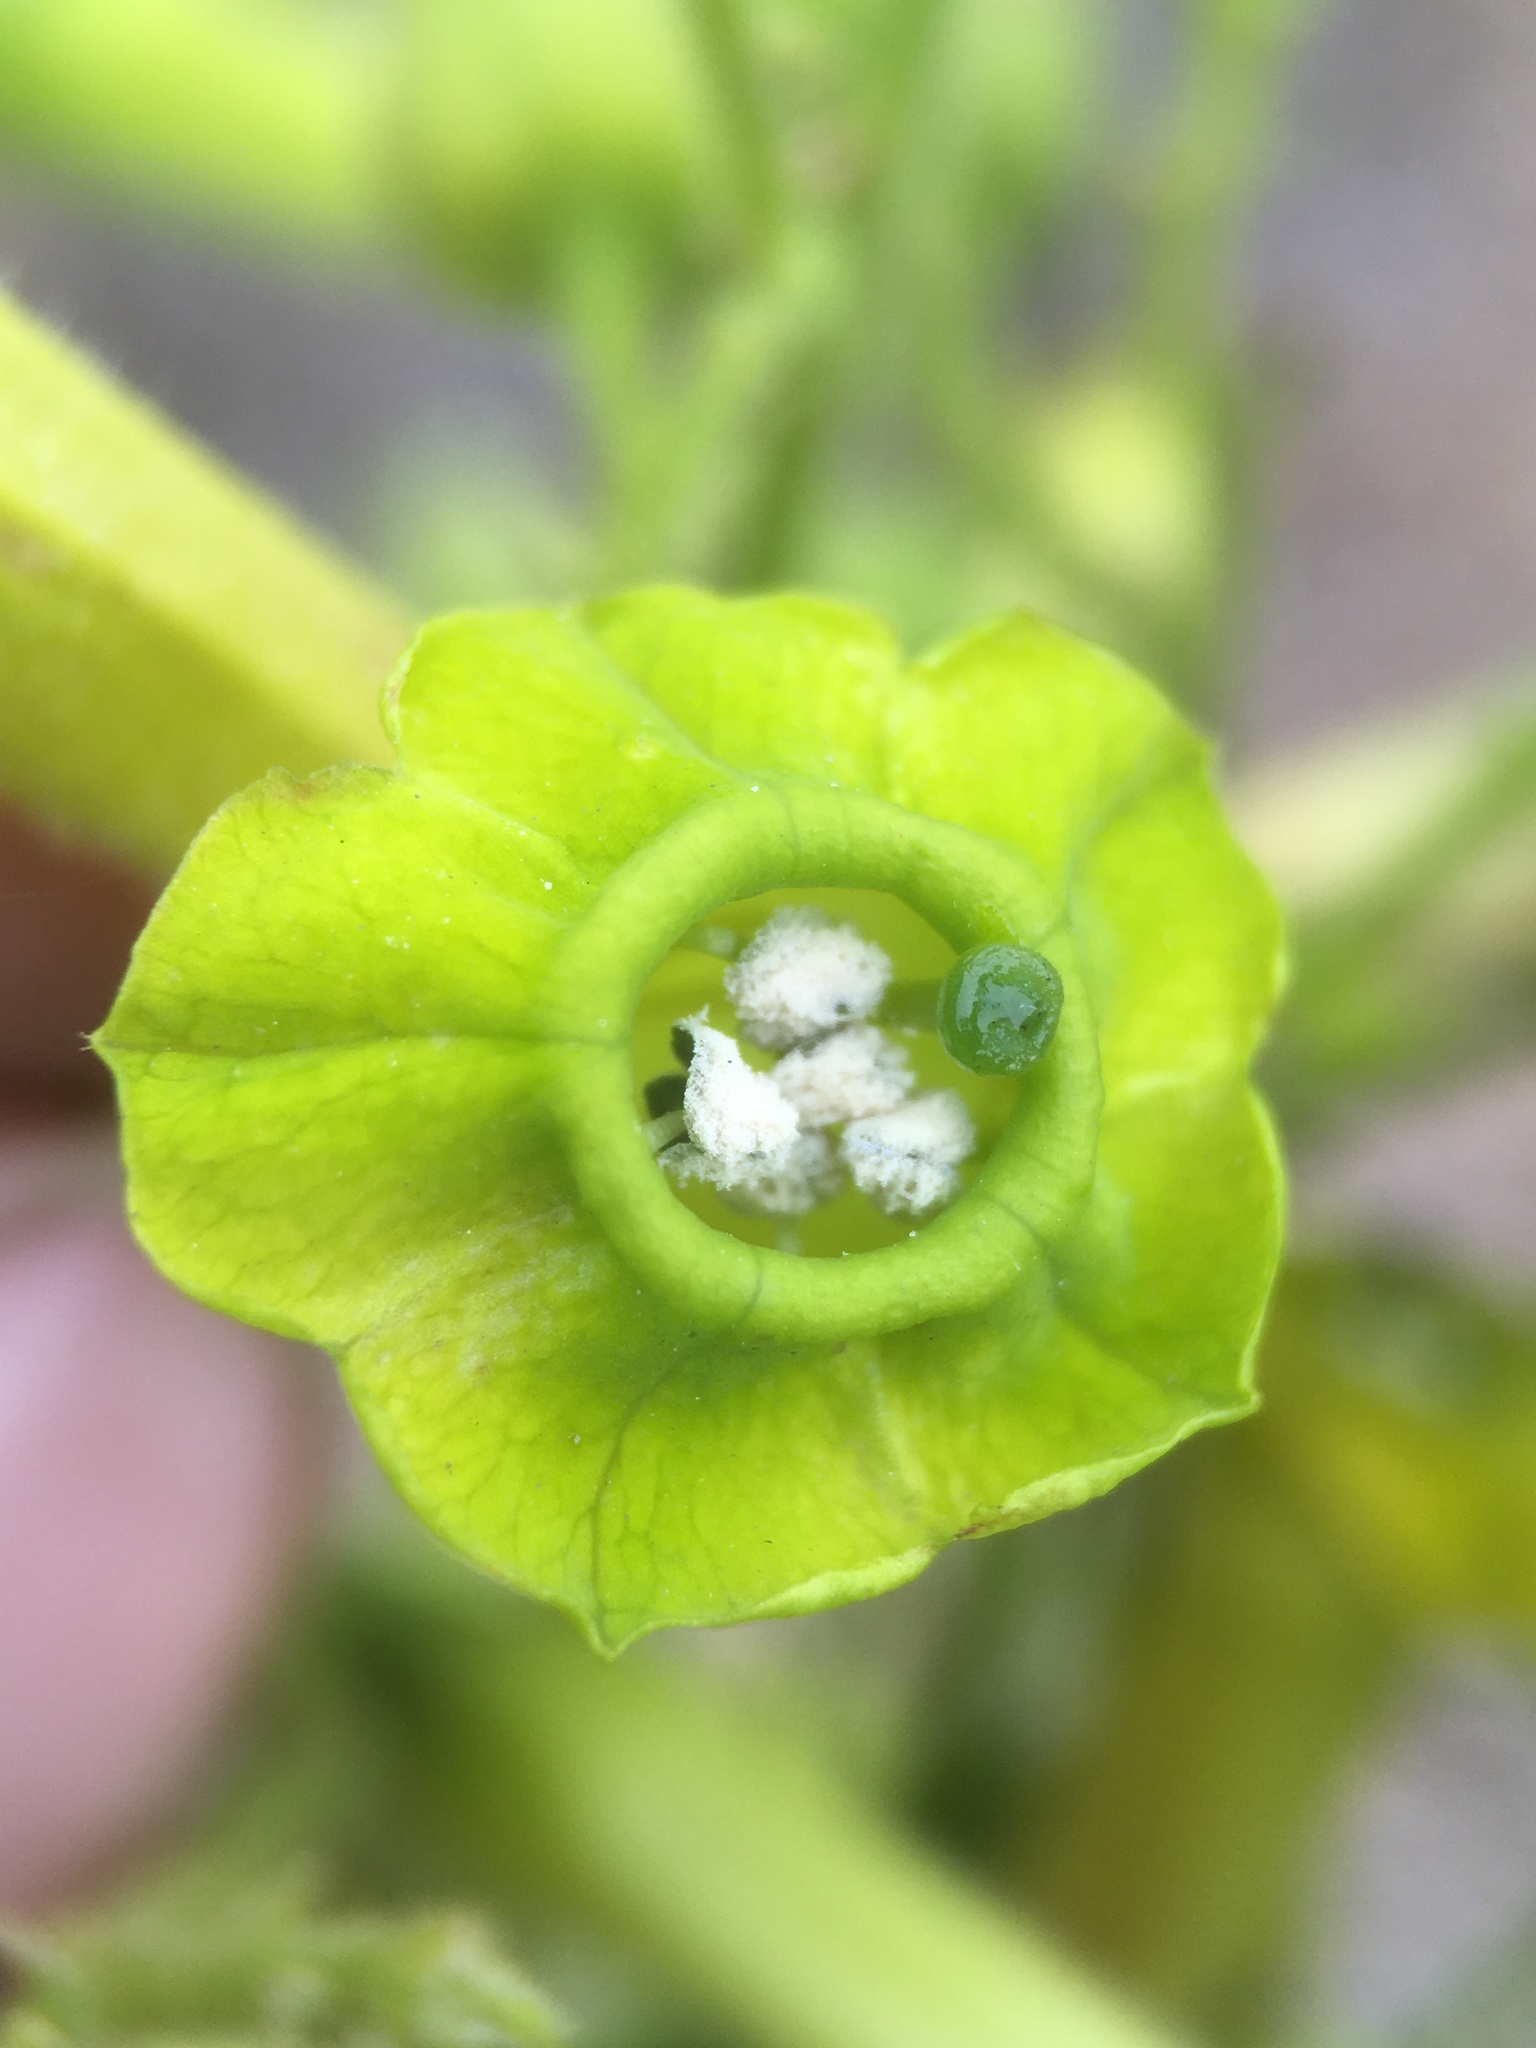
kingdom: Plantae
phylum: Tracheophyta
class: Magnoliopsida
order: Solanales
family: Solanaceae
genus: Nicotiana
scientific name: Nicotiana solanifolia
